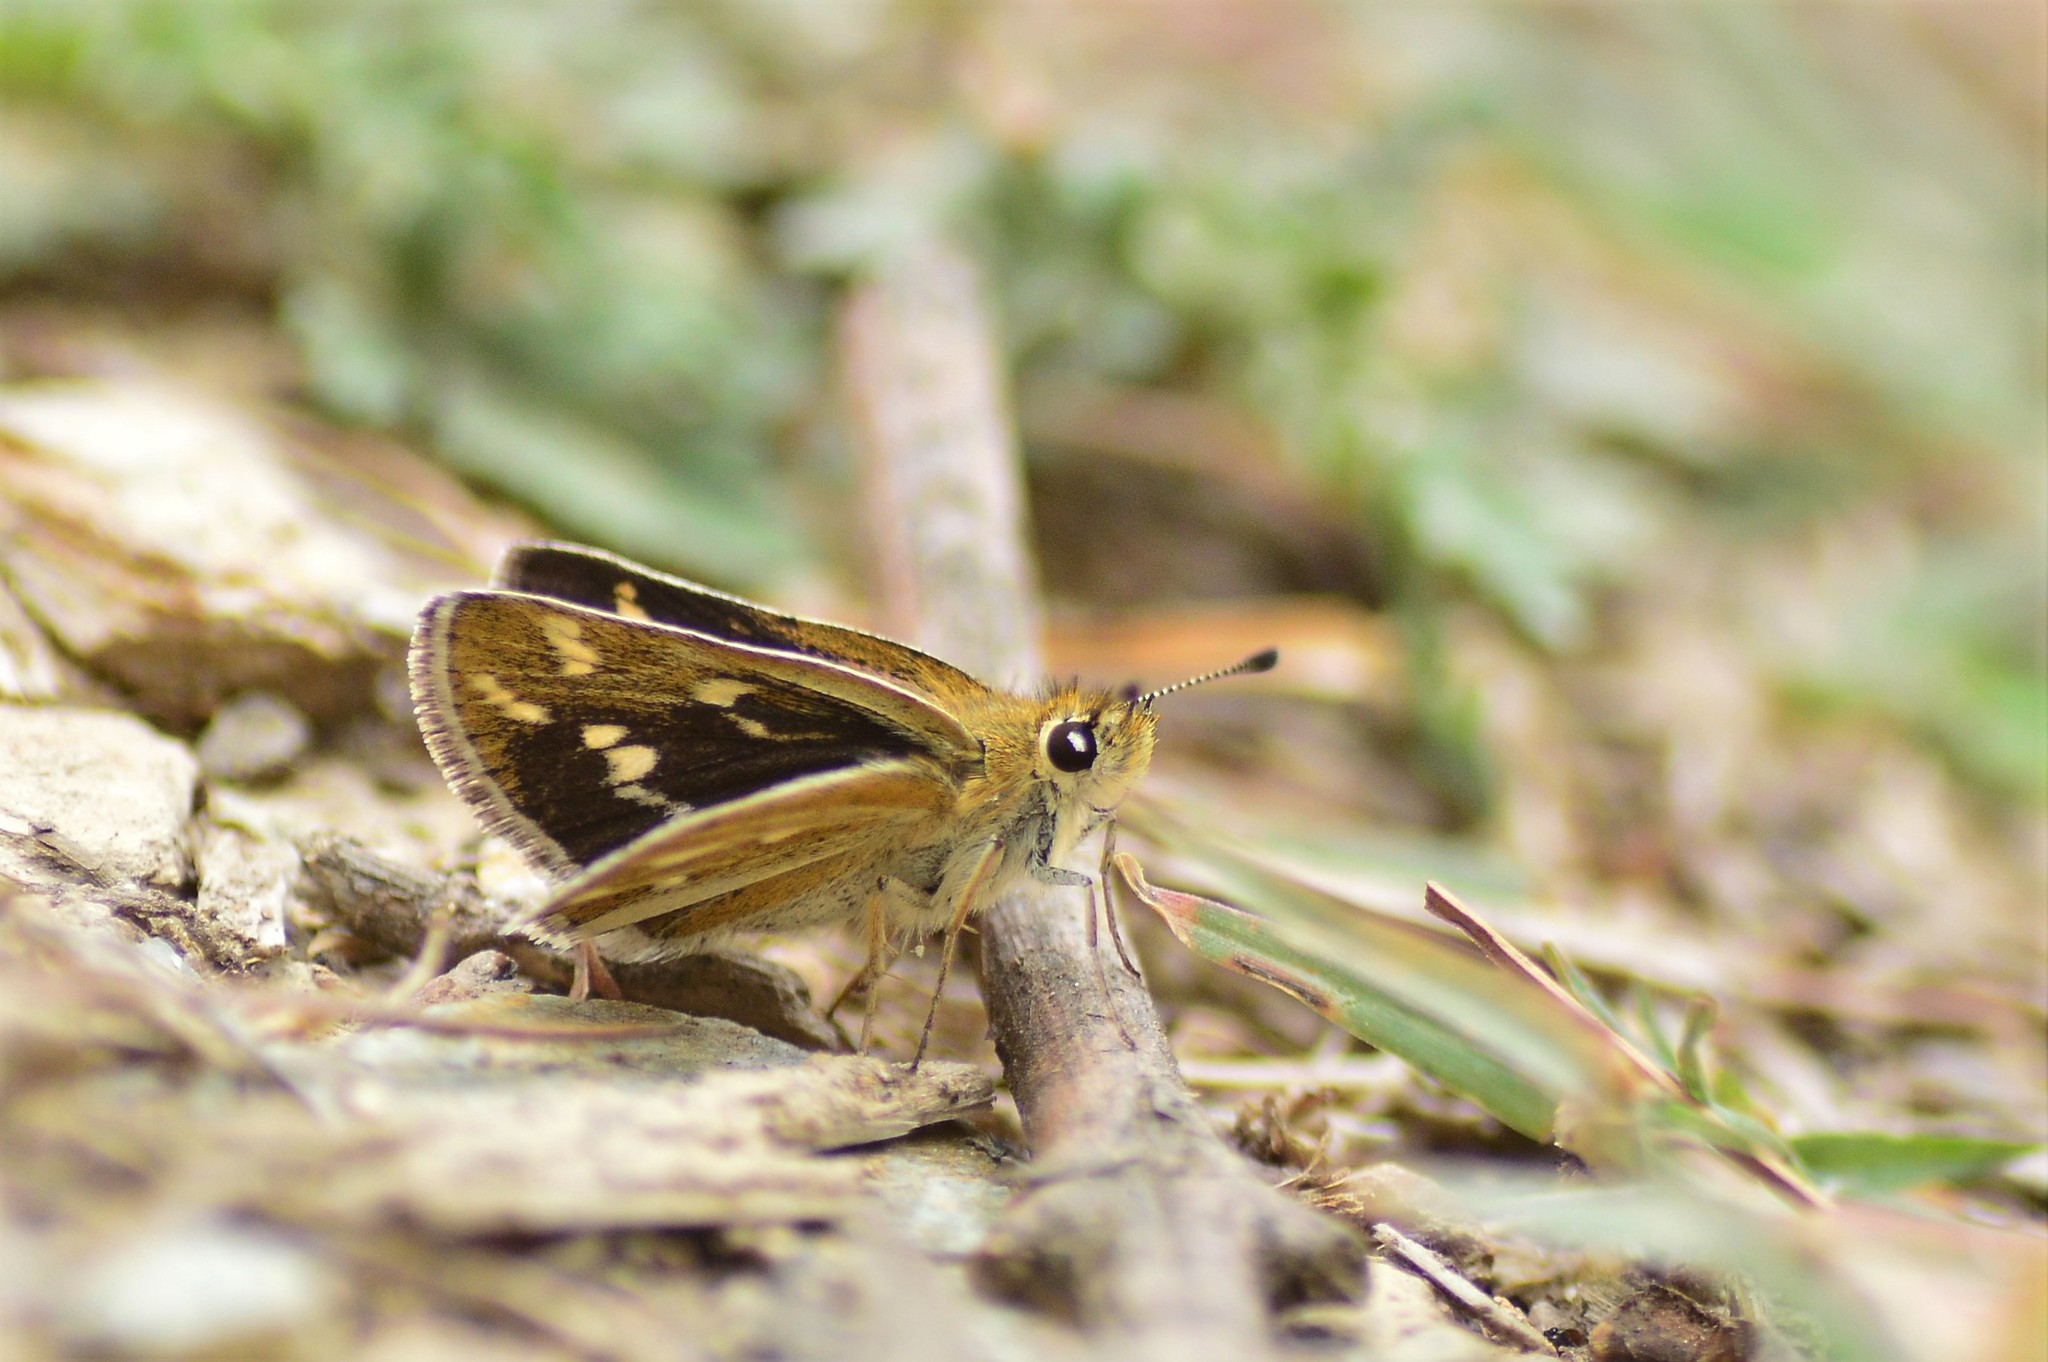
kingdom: Animalia
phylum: Arthropoda
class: Insecta
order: Lepidoptera
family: Hesperiidae
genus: Taractrocera
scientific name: Taractrocera danna
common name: Himalayan grass dart
